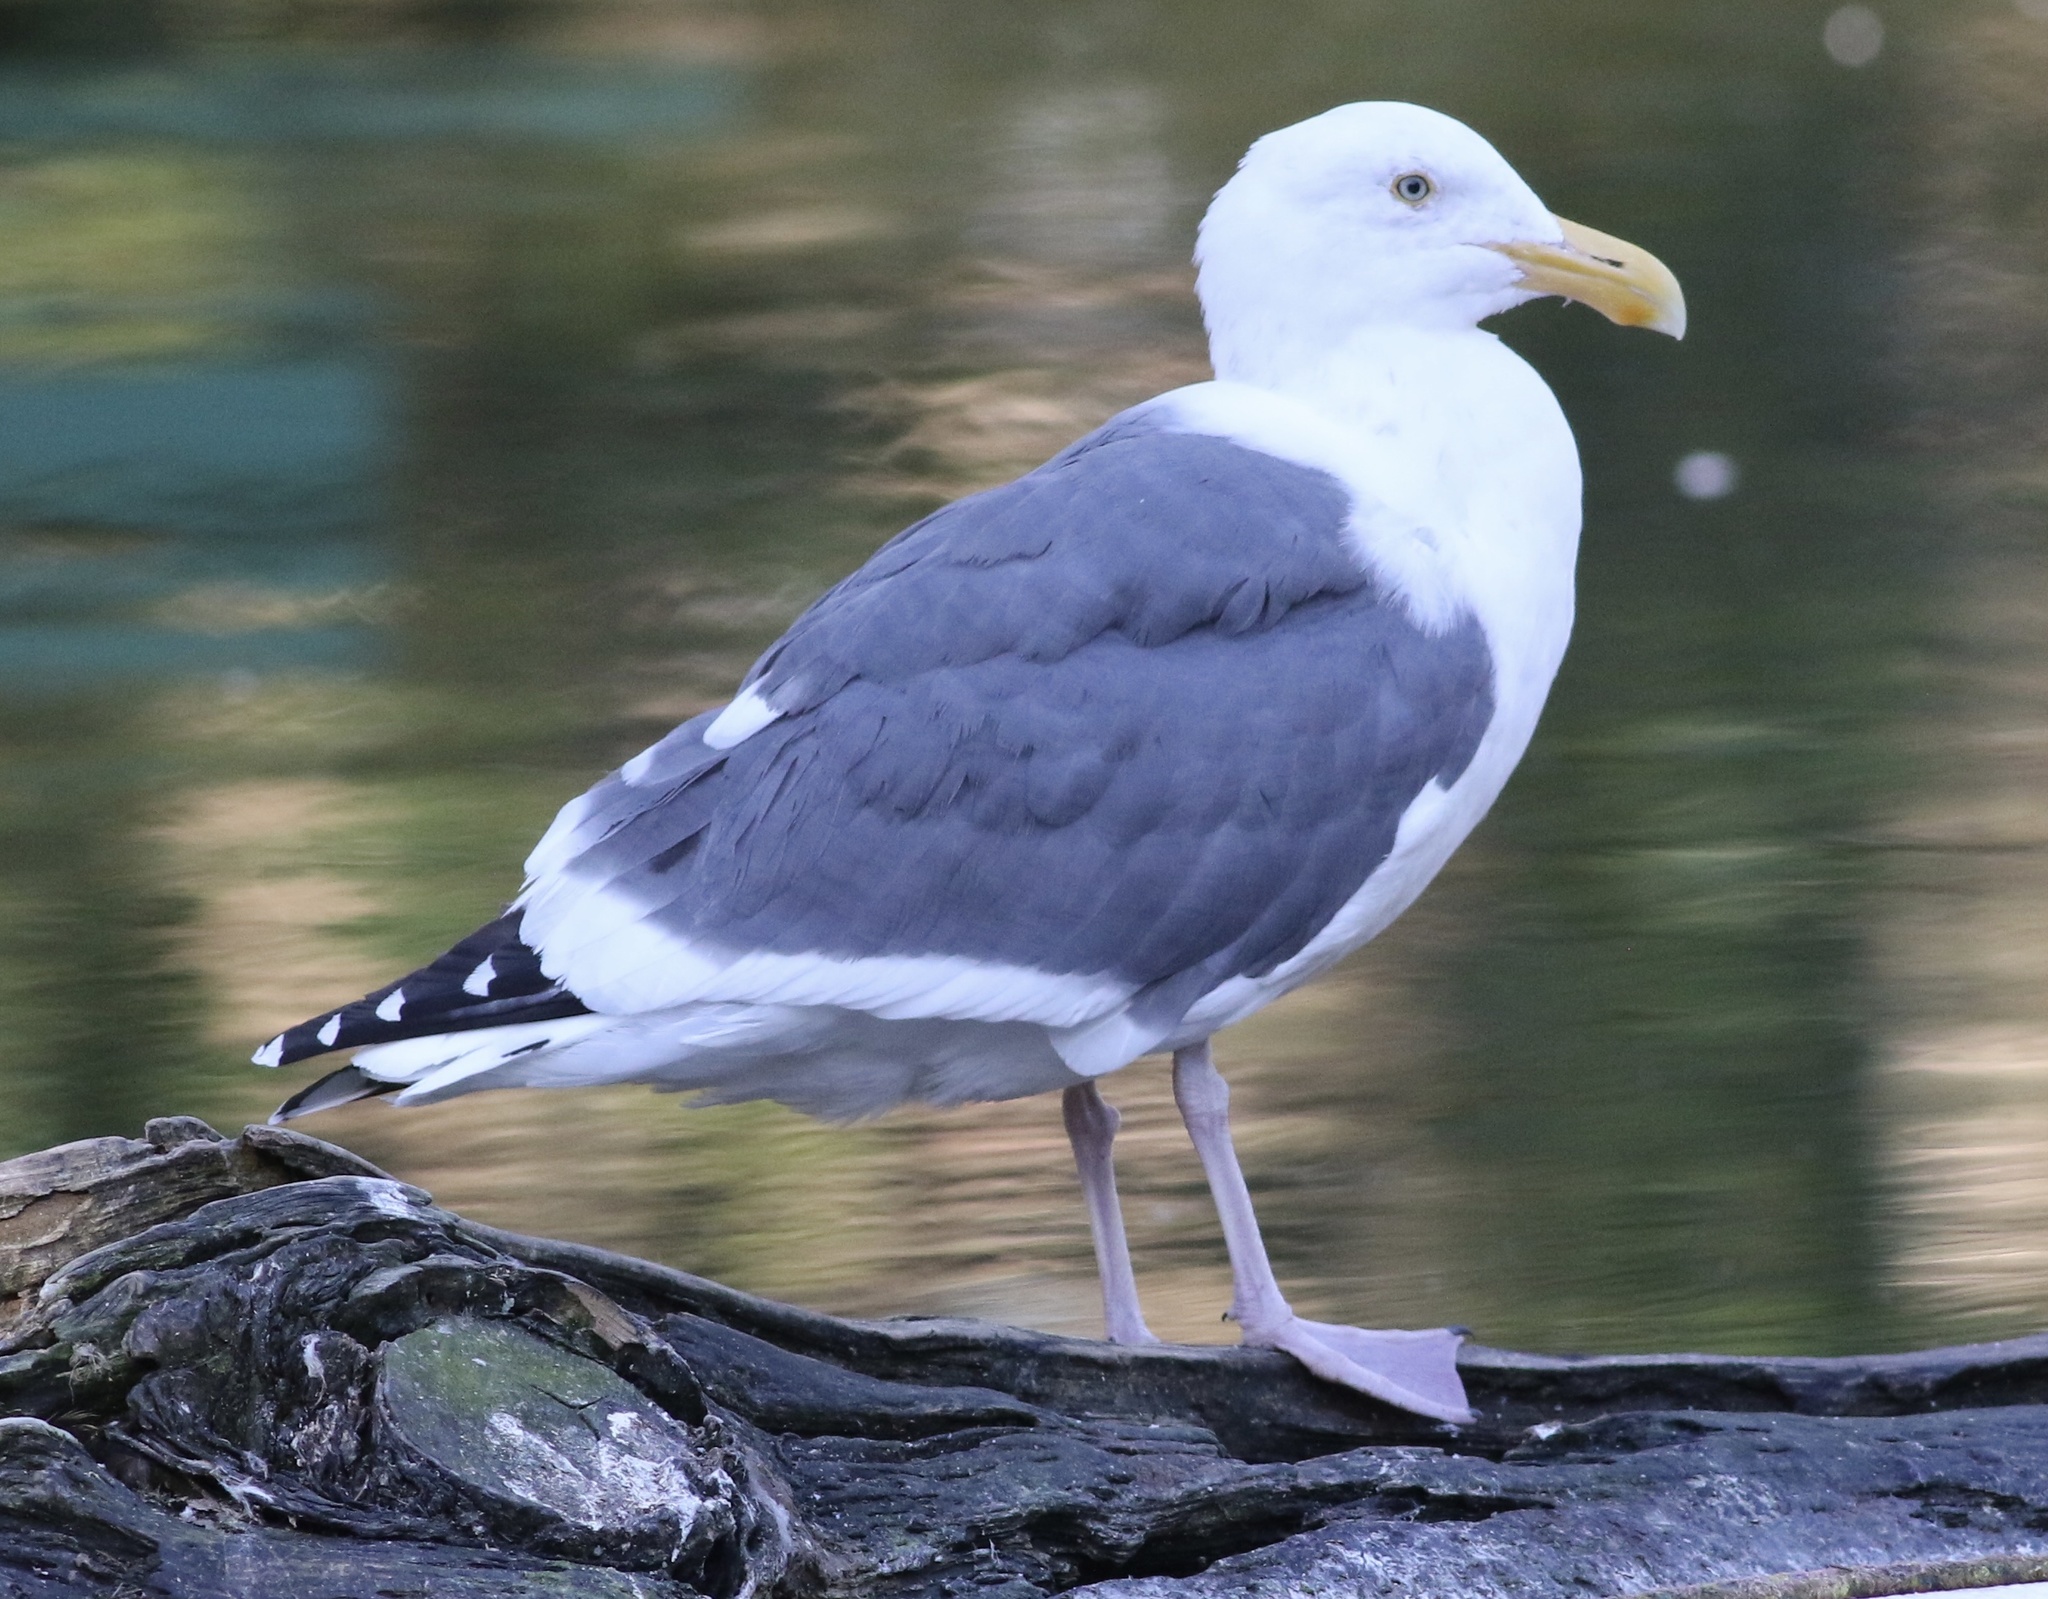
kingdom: Animalia
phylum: Chordata
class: Aves
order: Charadriiformes
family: Laridae
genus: Larus
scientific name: Larus occidentalis
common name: Western gull
